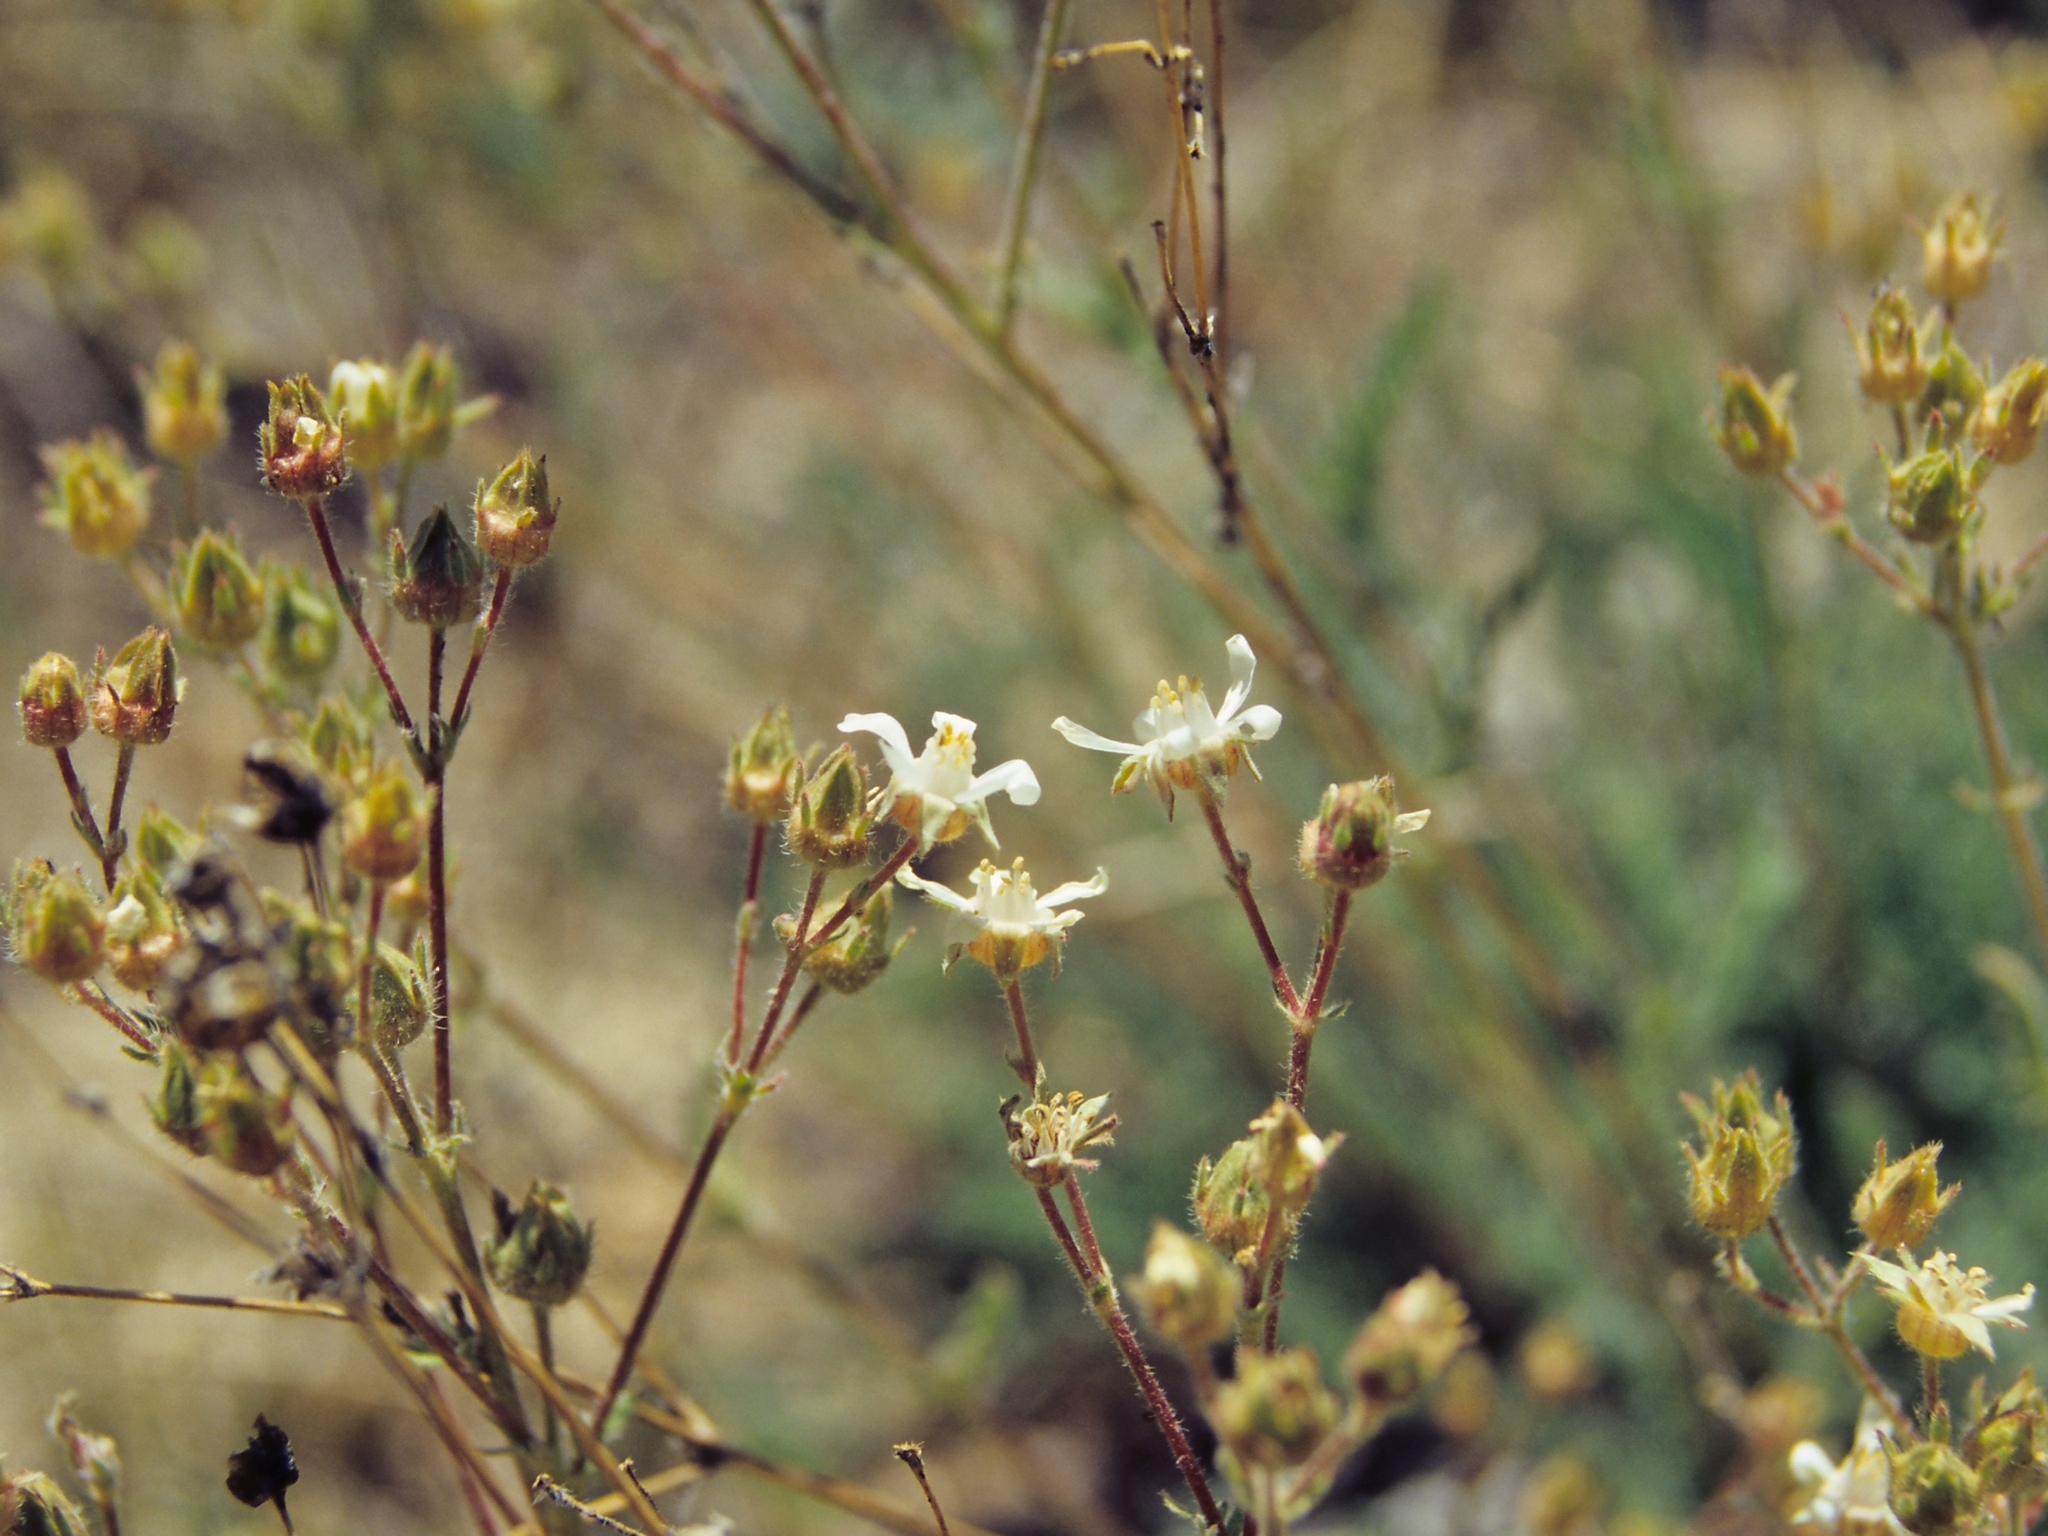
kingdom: Plantae
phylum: Tracheophyta
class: Magnoliopsida
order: Rosales
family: Rosaceae
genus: Potentilla
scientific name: Potentilla hispidula
